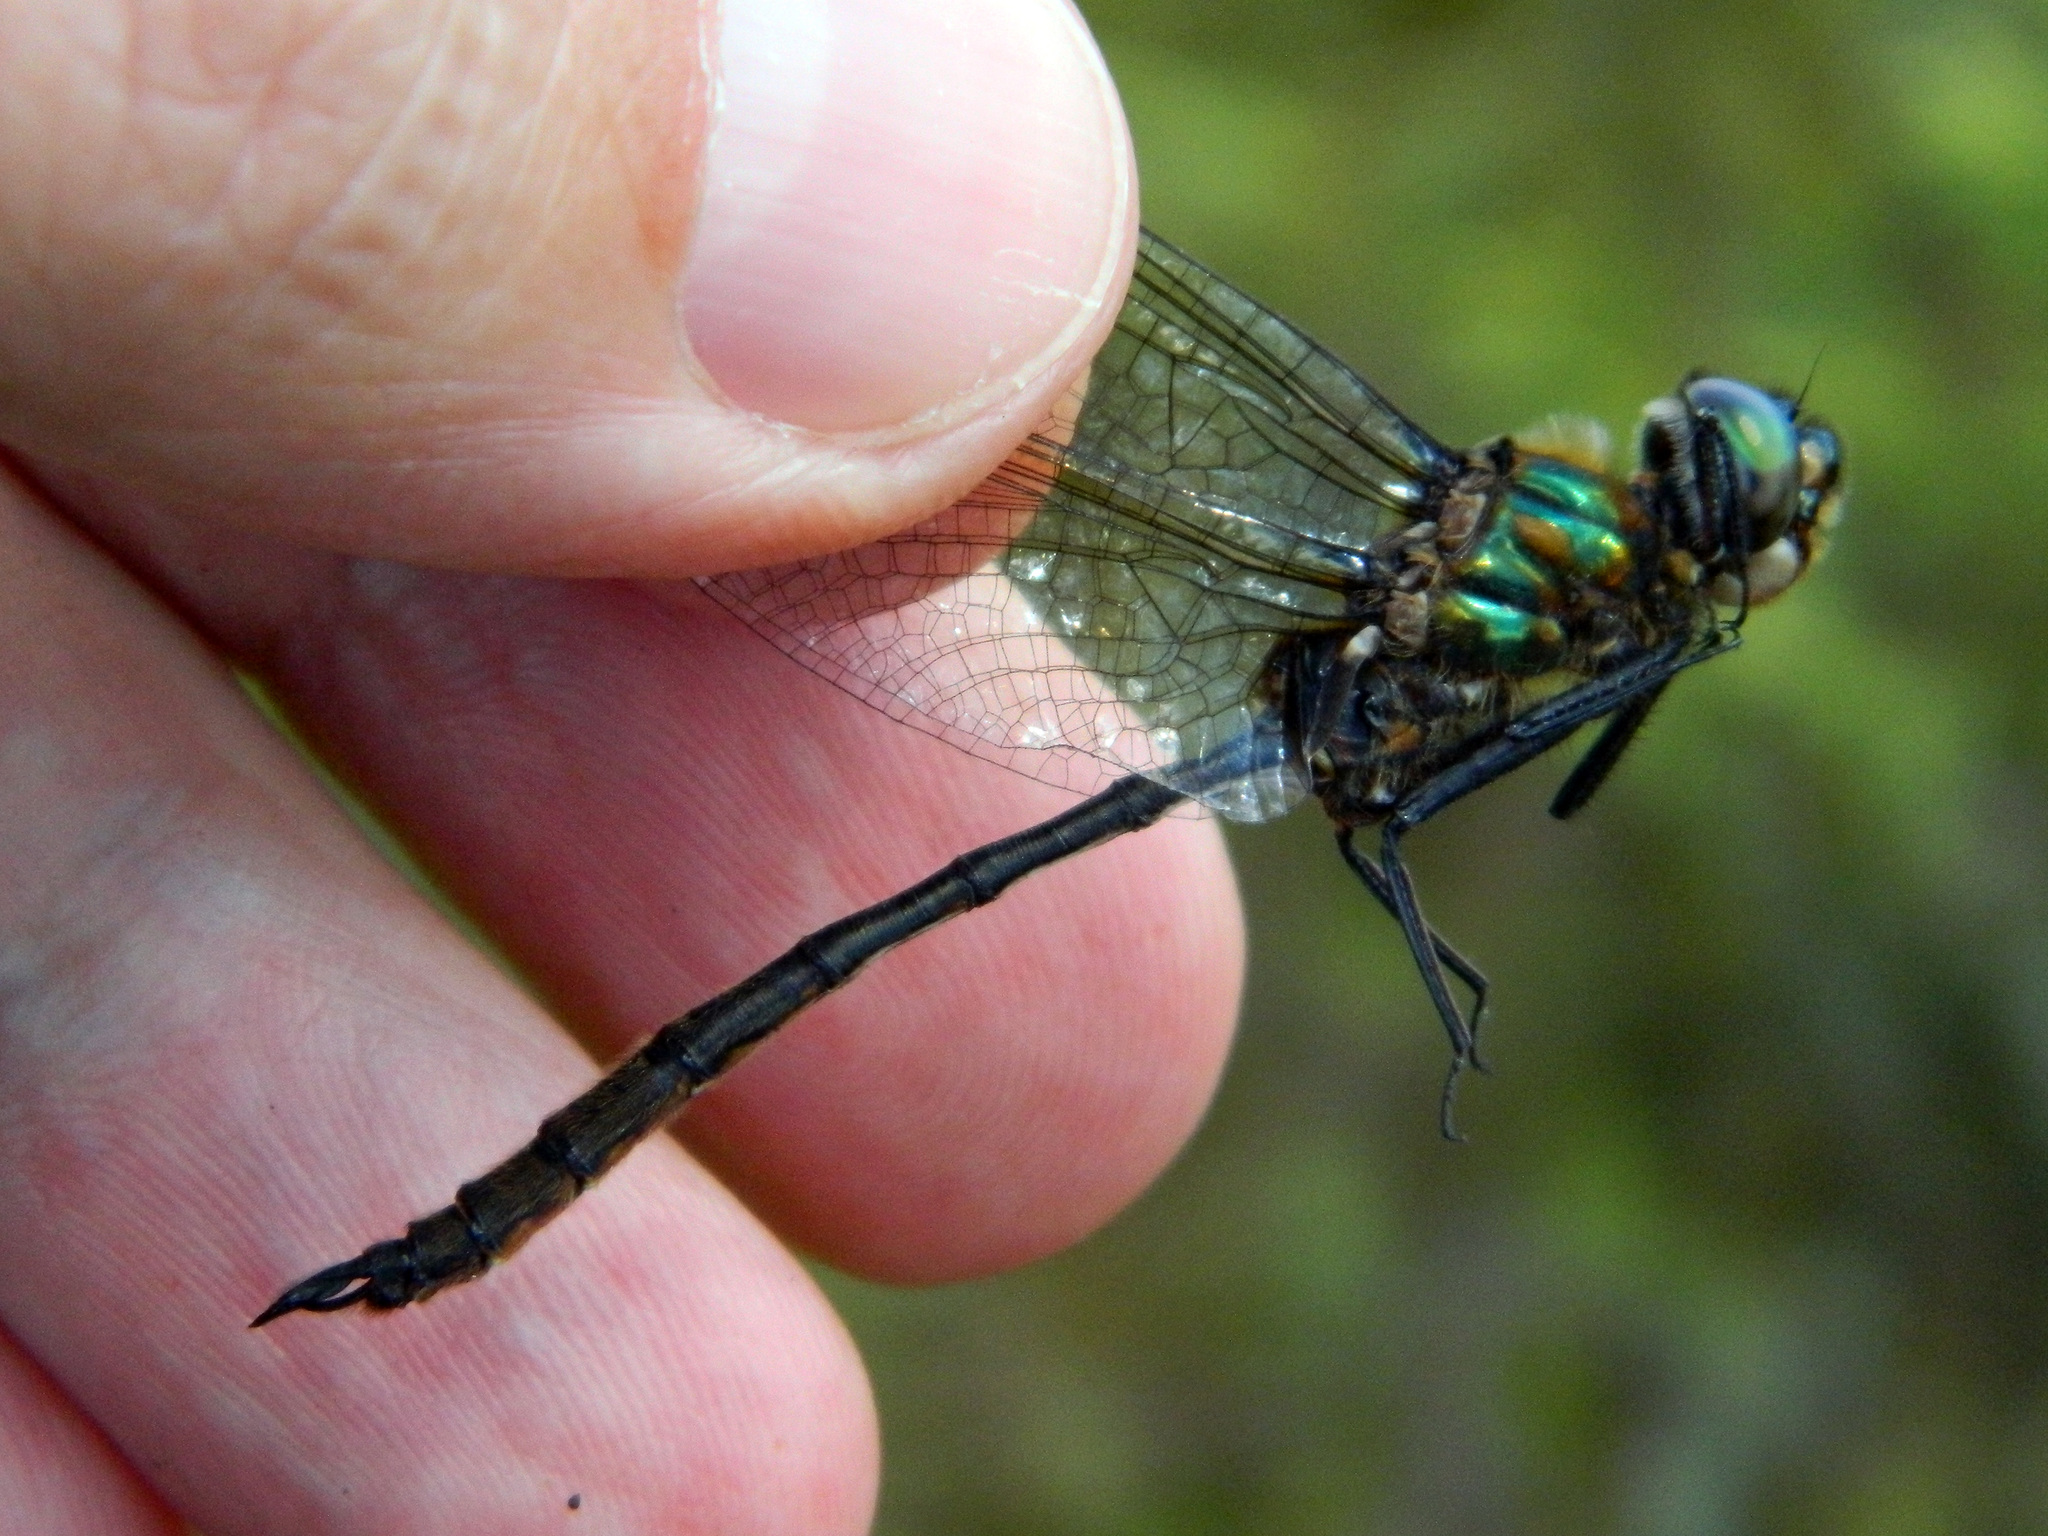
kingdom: Animalia
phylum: Arthropoda
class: Insecta
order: Odonata
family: Corduliidae
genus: Somatochlora
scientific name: Somatochlora franklini
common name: Delicate emerald
